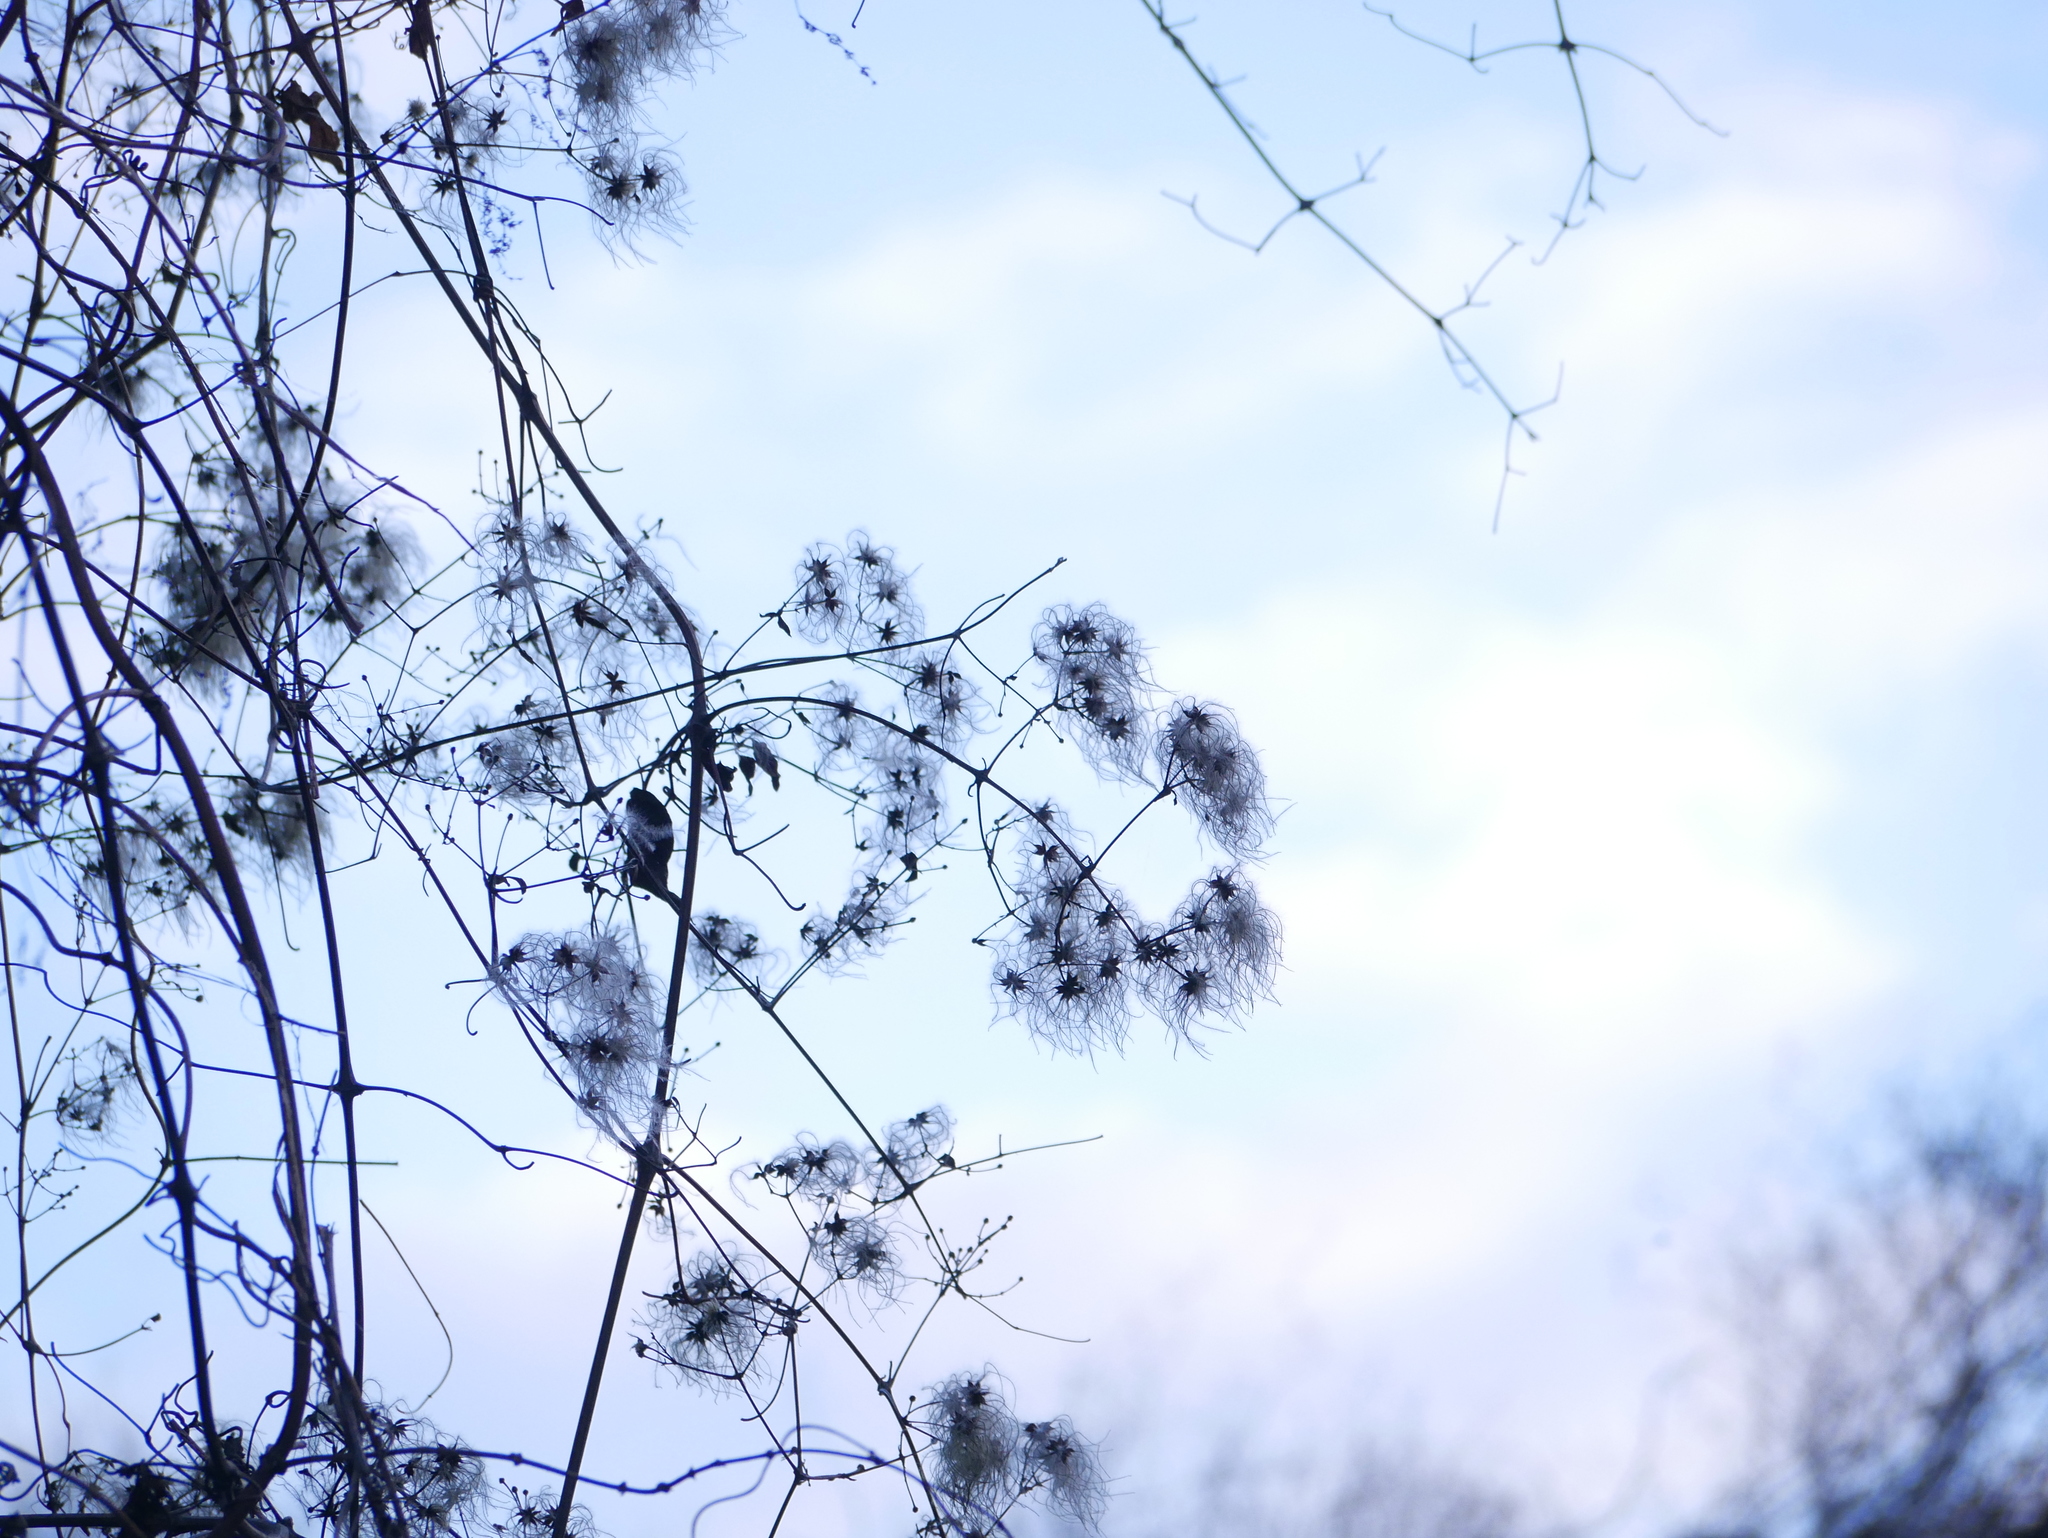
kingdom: Plantae
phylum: Tracheophyta
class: Magnoliopsida
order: Ranunculales
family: Ranunculaceae
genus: Clematis
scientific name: Clematis vitalba
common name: Evergreen clematis
